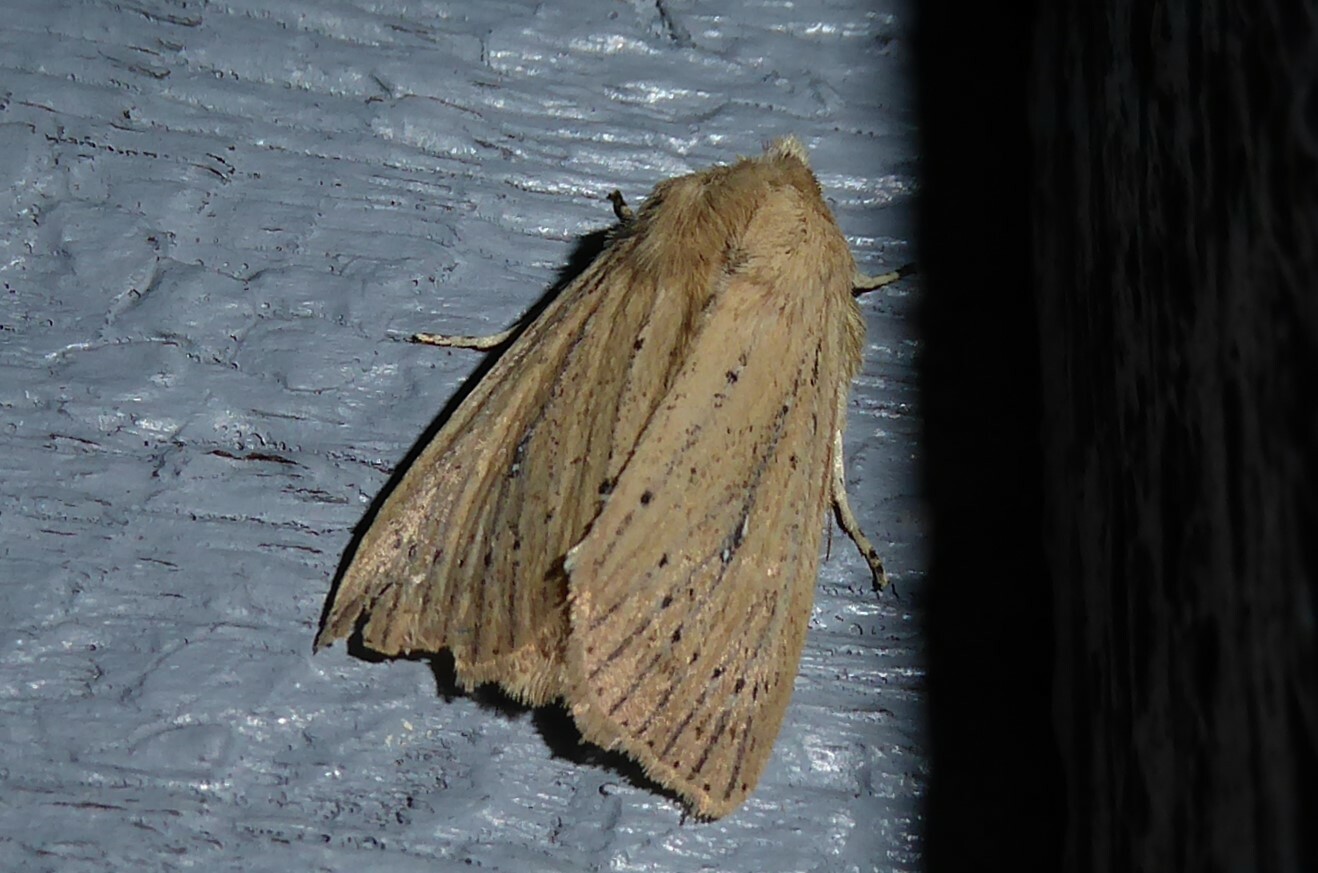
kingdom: Animalia
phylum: Arthropoda
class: Insecta
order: Lepidoptera
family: Noctuidae
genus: Ichneutica
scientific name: Ichneutica
